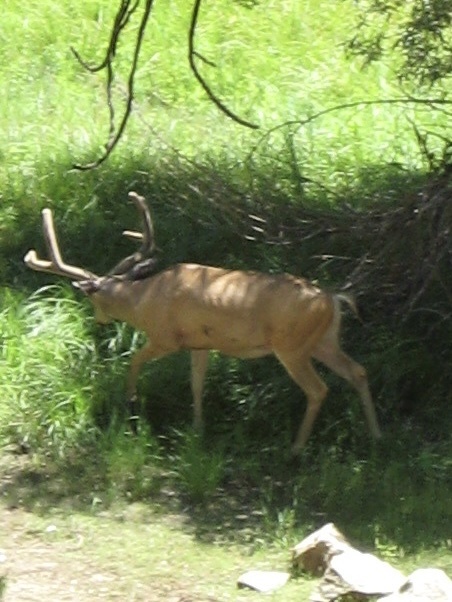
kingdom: Animalia
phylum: Chordata
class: Mammalia
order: Artiodactyla
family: Cervidae
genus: Odocoileus
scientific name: Odocoileus hemionus
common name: Mule deer
